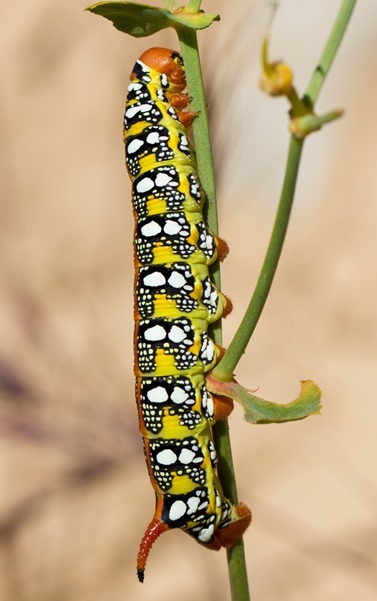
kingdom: Animalia
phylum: Arthropoda
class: Insecta
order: Lepidoptera
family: Sphingidae
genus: Hyles
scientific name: Hyles euphorbiae
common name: Spurge hawk-moth
